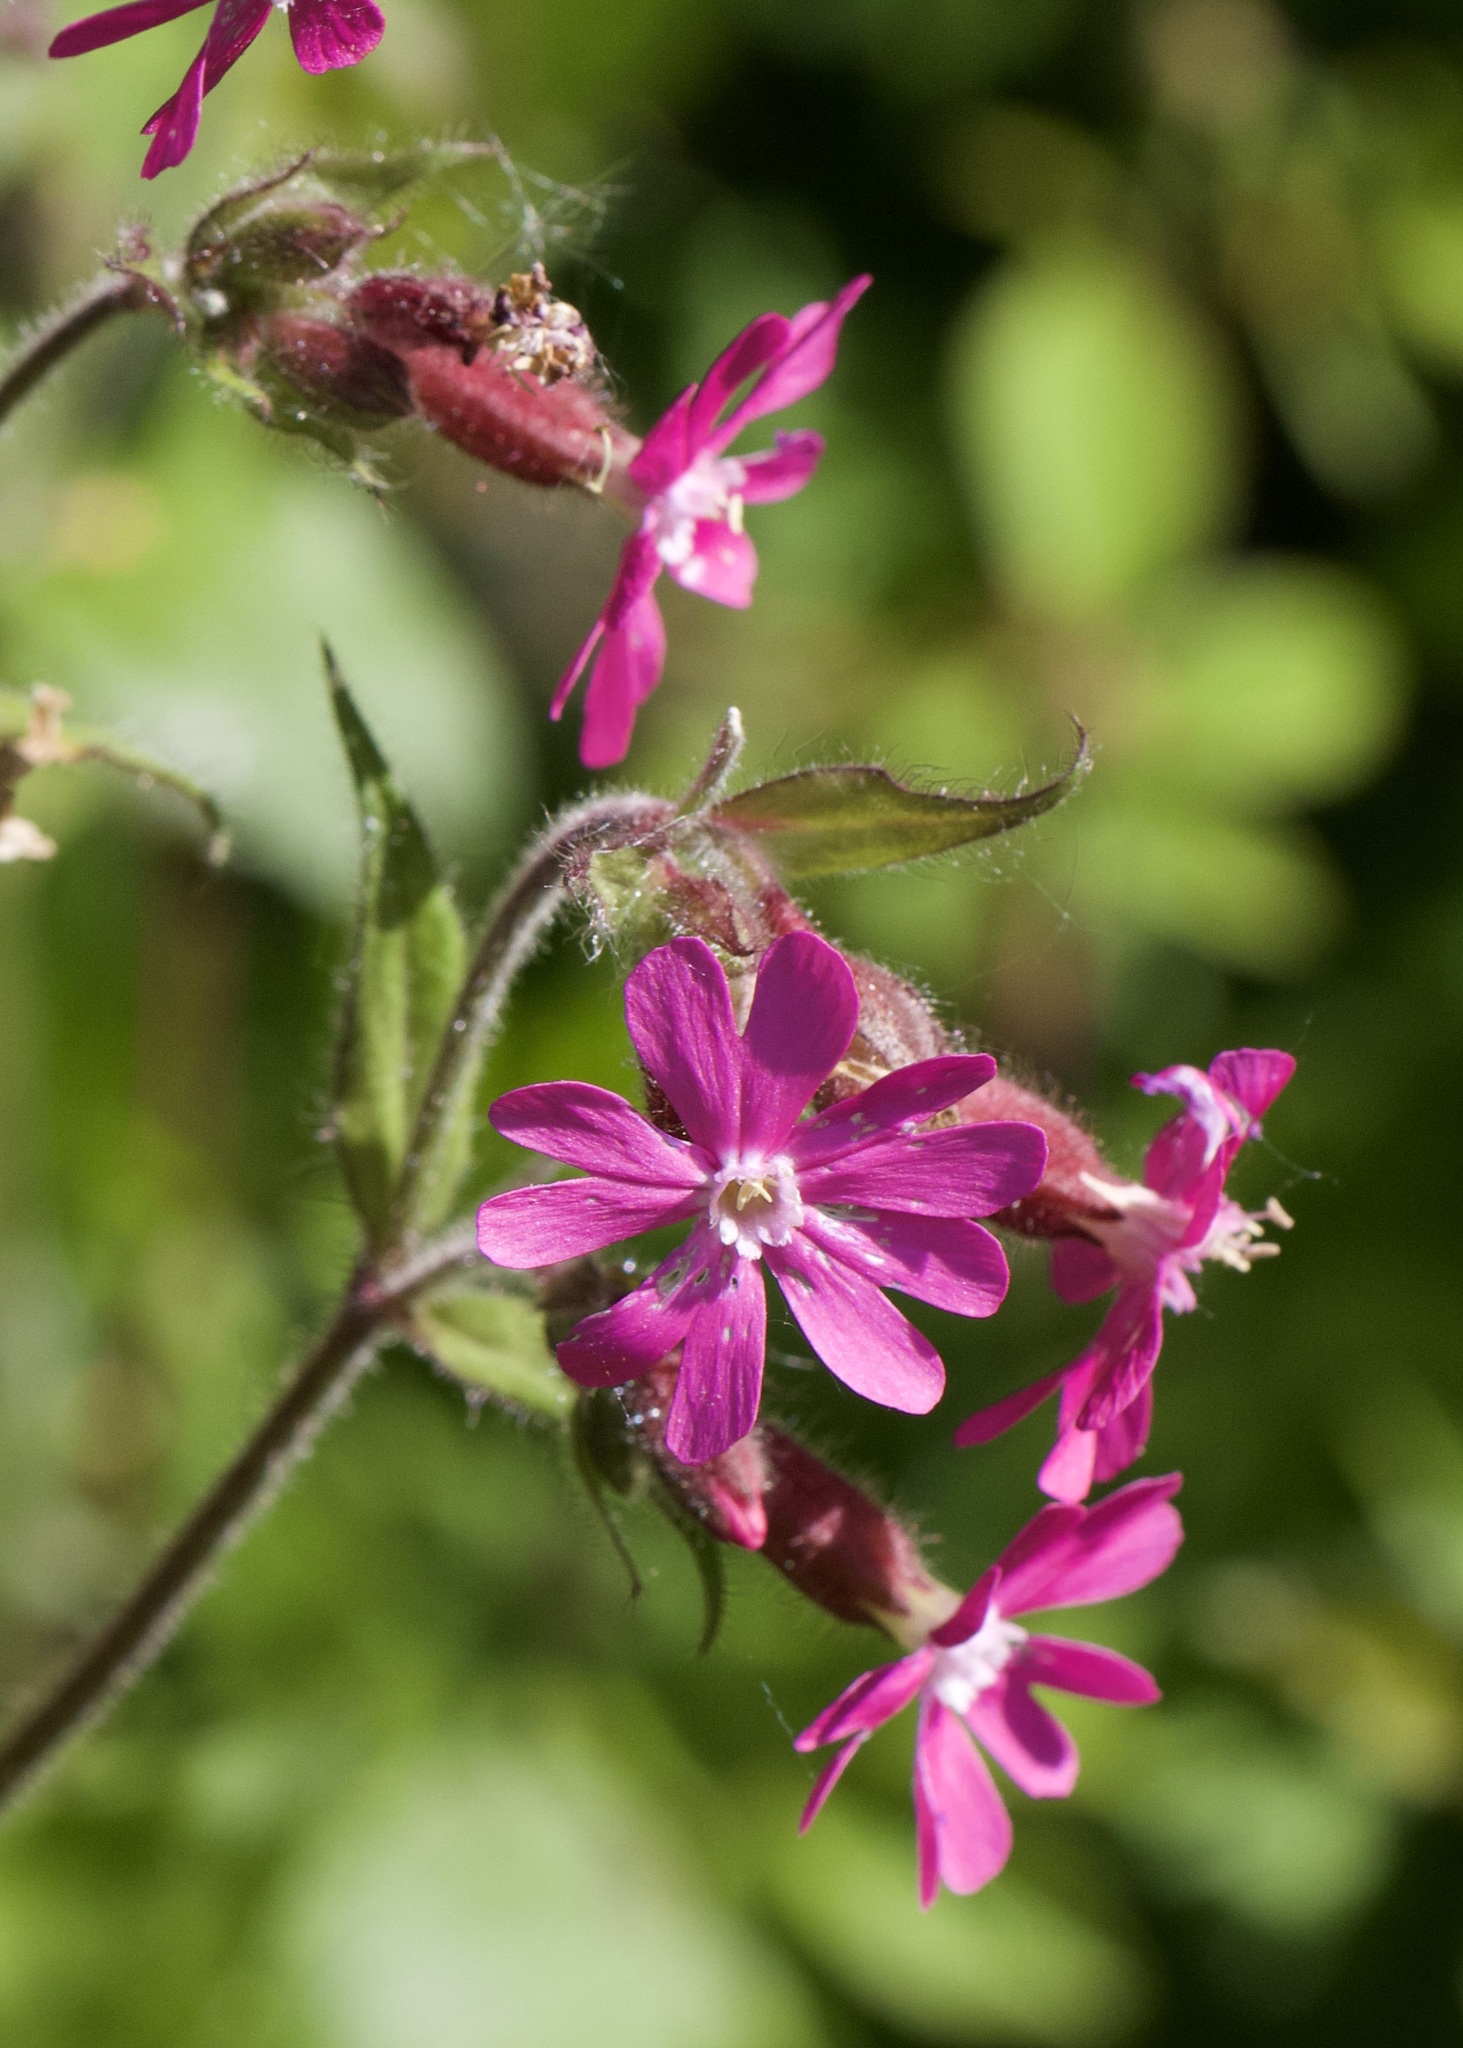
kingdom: Plantae
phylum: Tracheophyta
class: Magnoliopsida
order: Caryophyllales
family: Caryophyllaceae
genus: Silene
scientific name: Silene dioica
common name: Red campion
